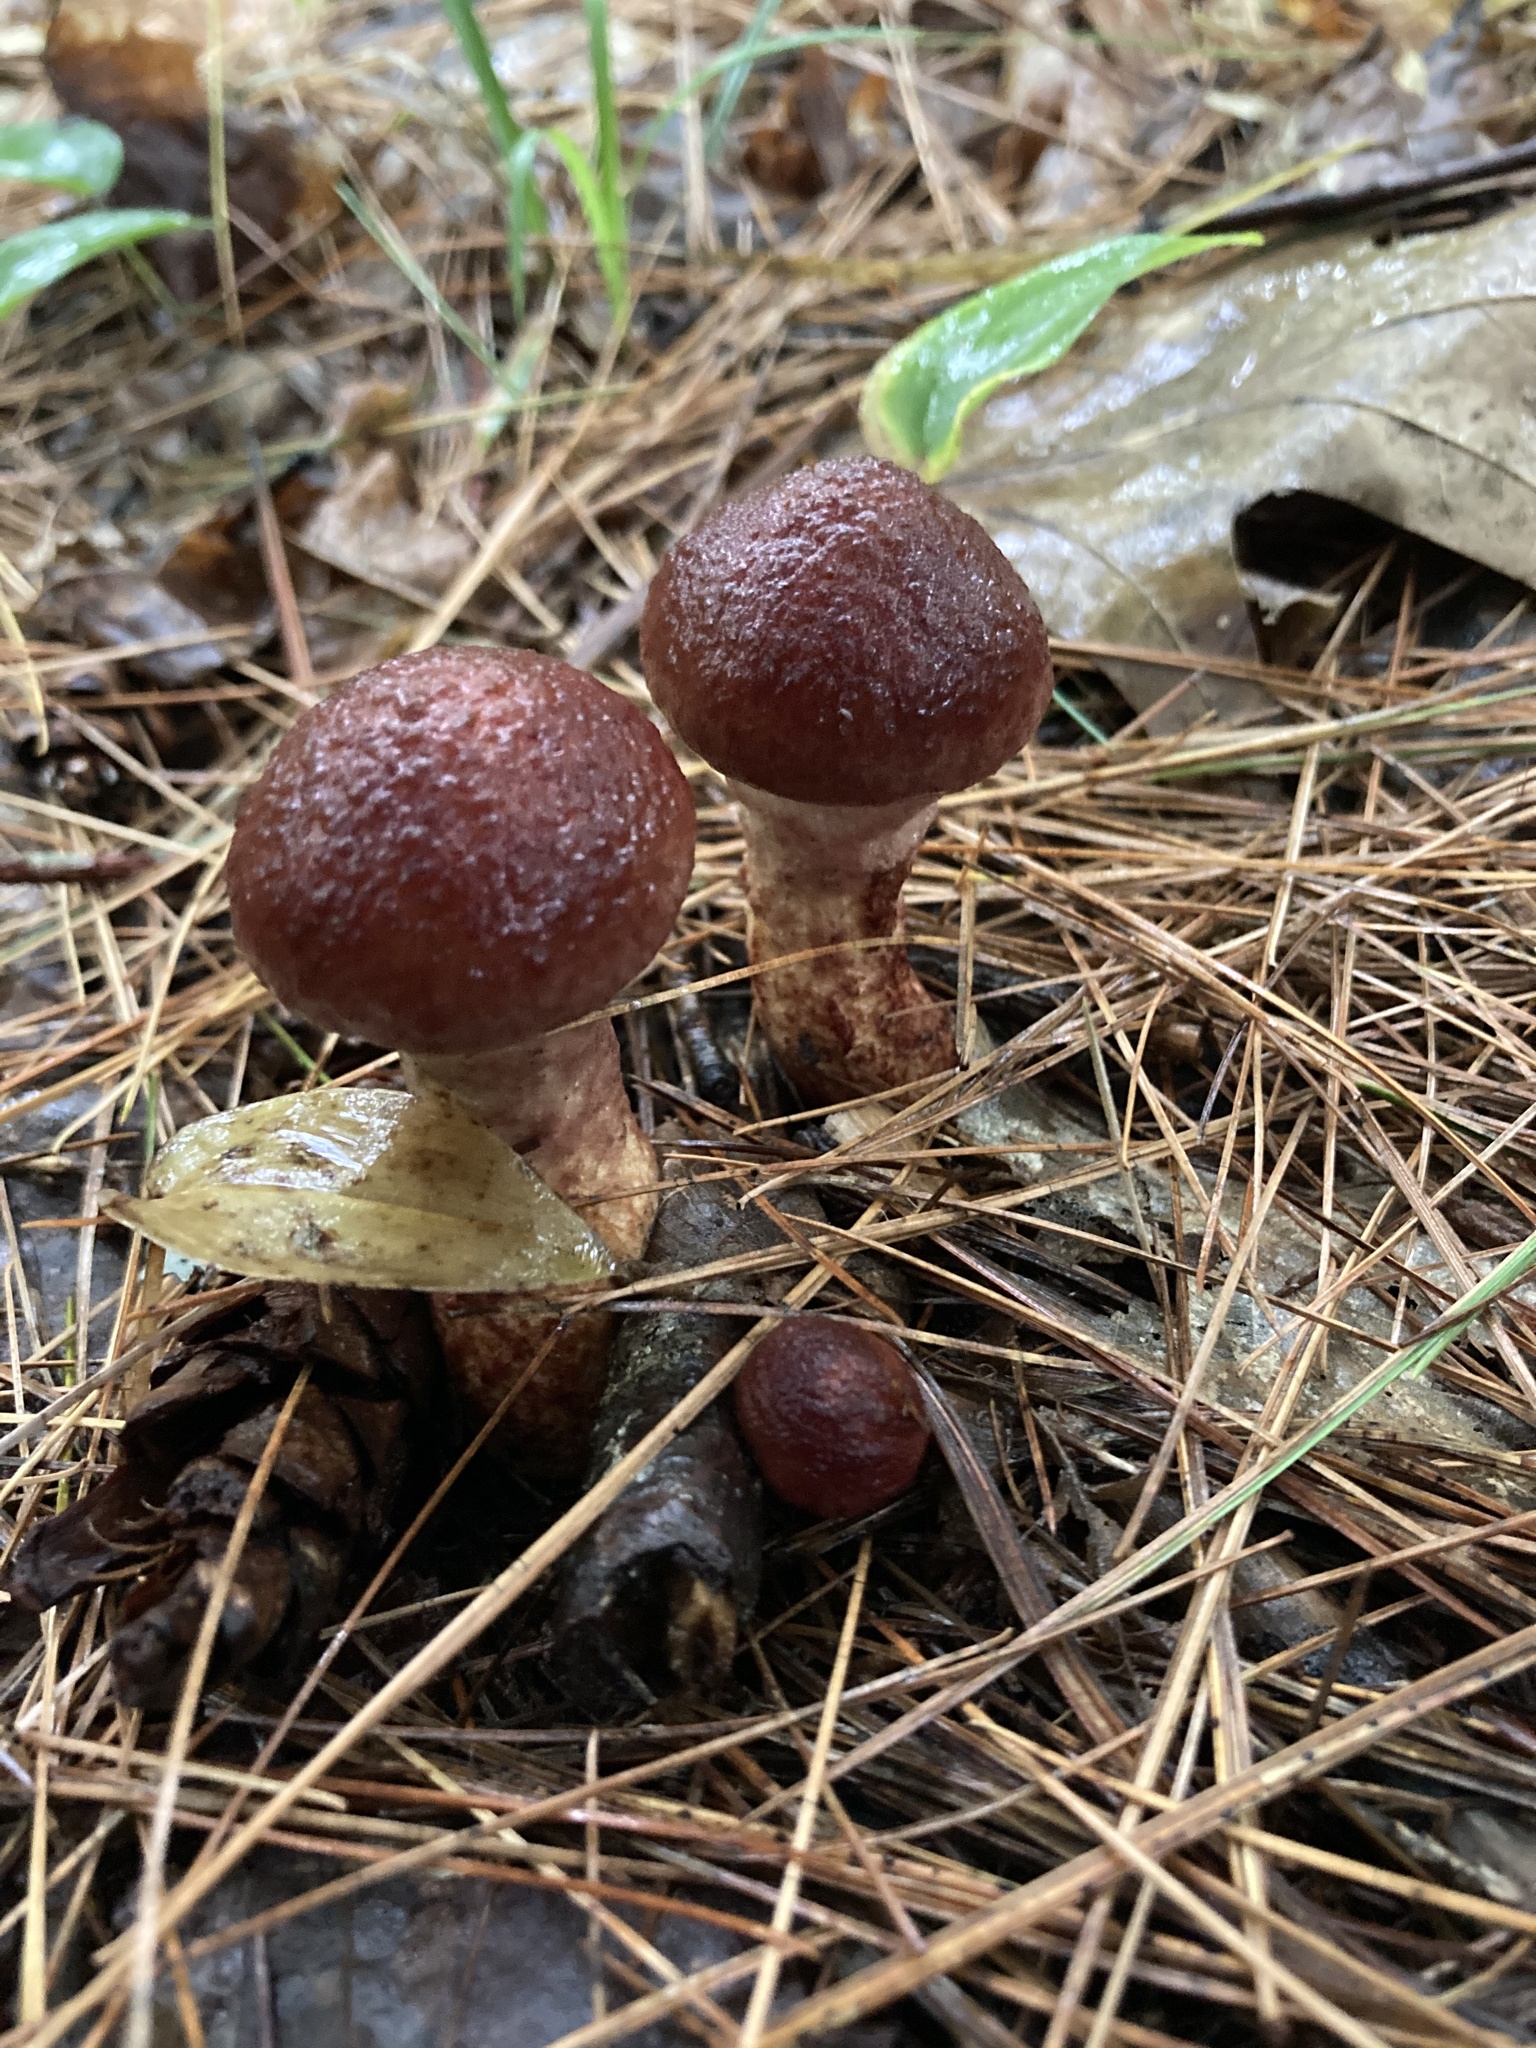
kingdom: Fungi
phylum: Basidiomycota
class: Agaricomycetes
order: Boletales
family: Suillaceae
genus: Suillus
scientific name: Suillus spraguei
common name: Painted suillus
